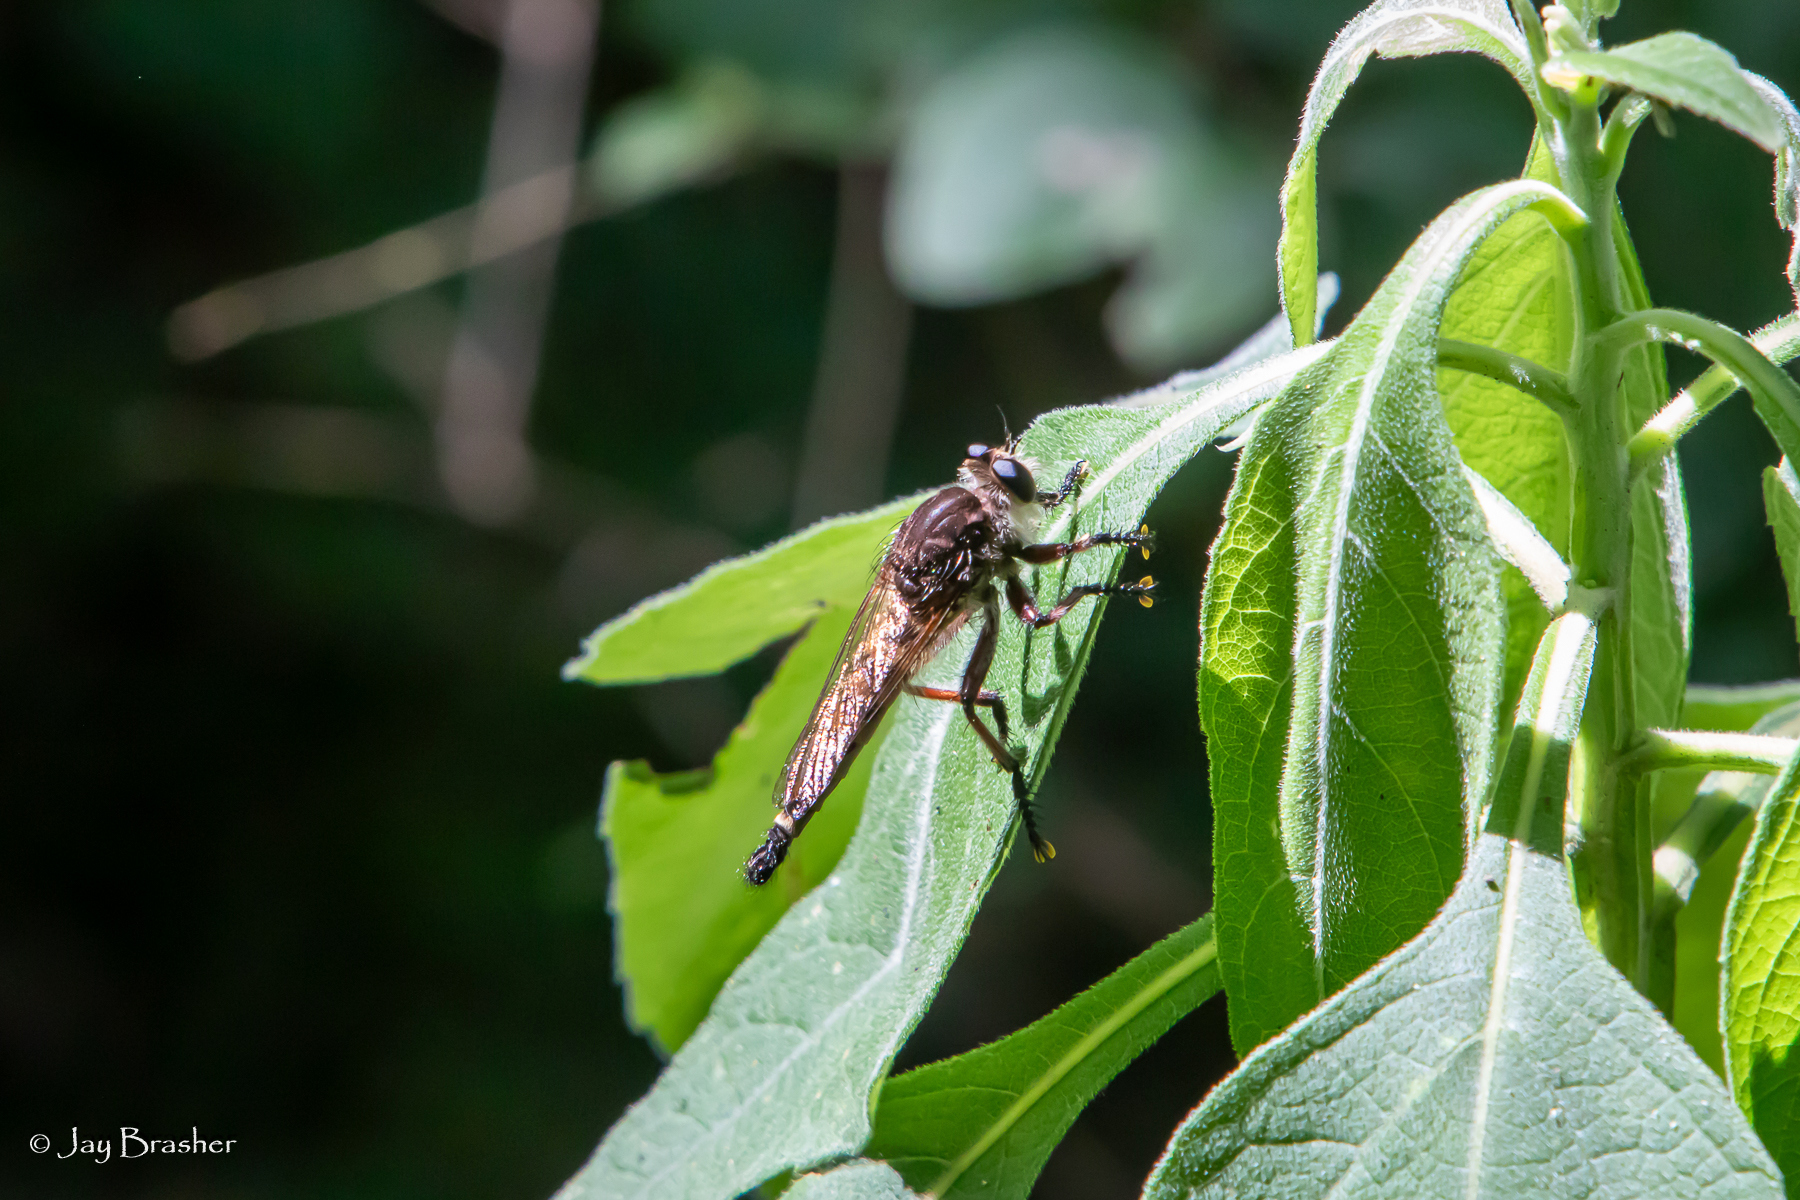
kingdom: Animalia
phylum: Arthropoda
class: Insecta
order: Diptera
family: Asilidae
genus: Promachus
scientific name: Promachus hinei
